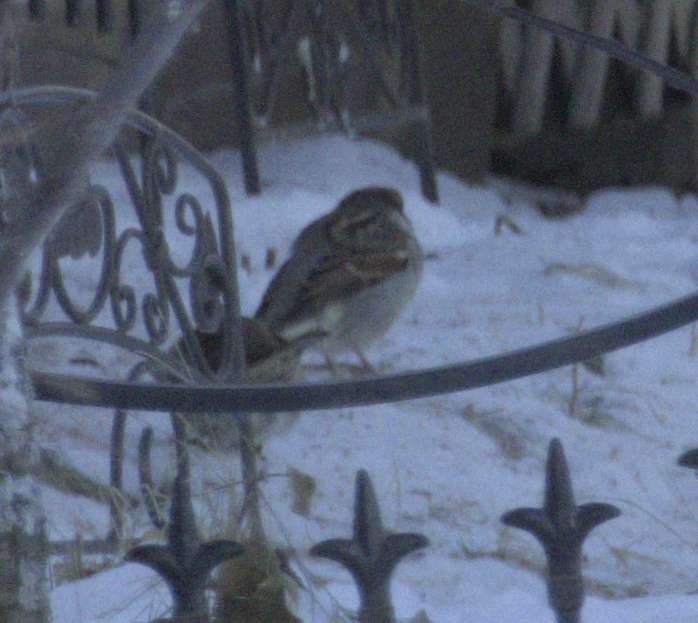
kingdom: Animalia
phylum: Chordata
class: Aves
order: Passeriformes
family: Passeridae
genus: Passer
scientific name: Passer domesticus
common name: House sparrow
